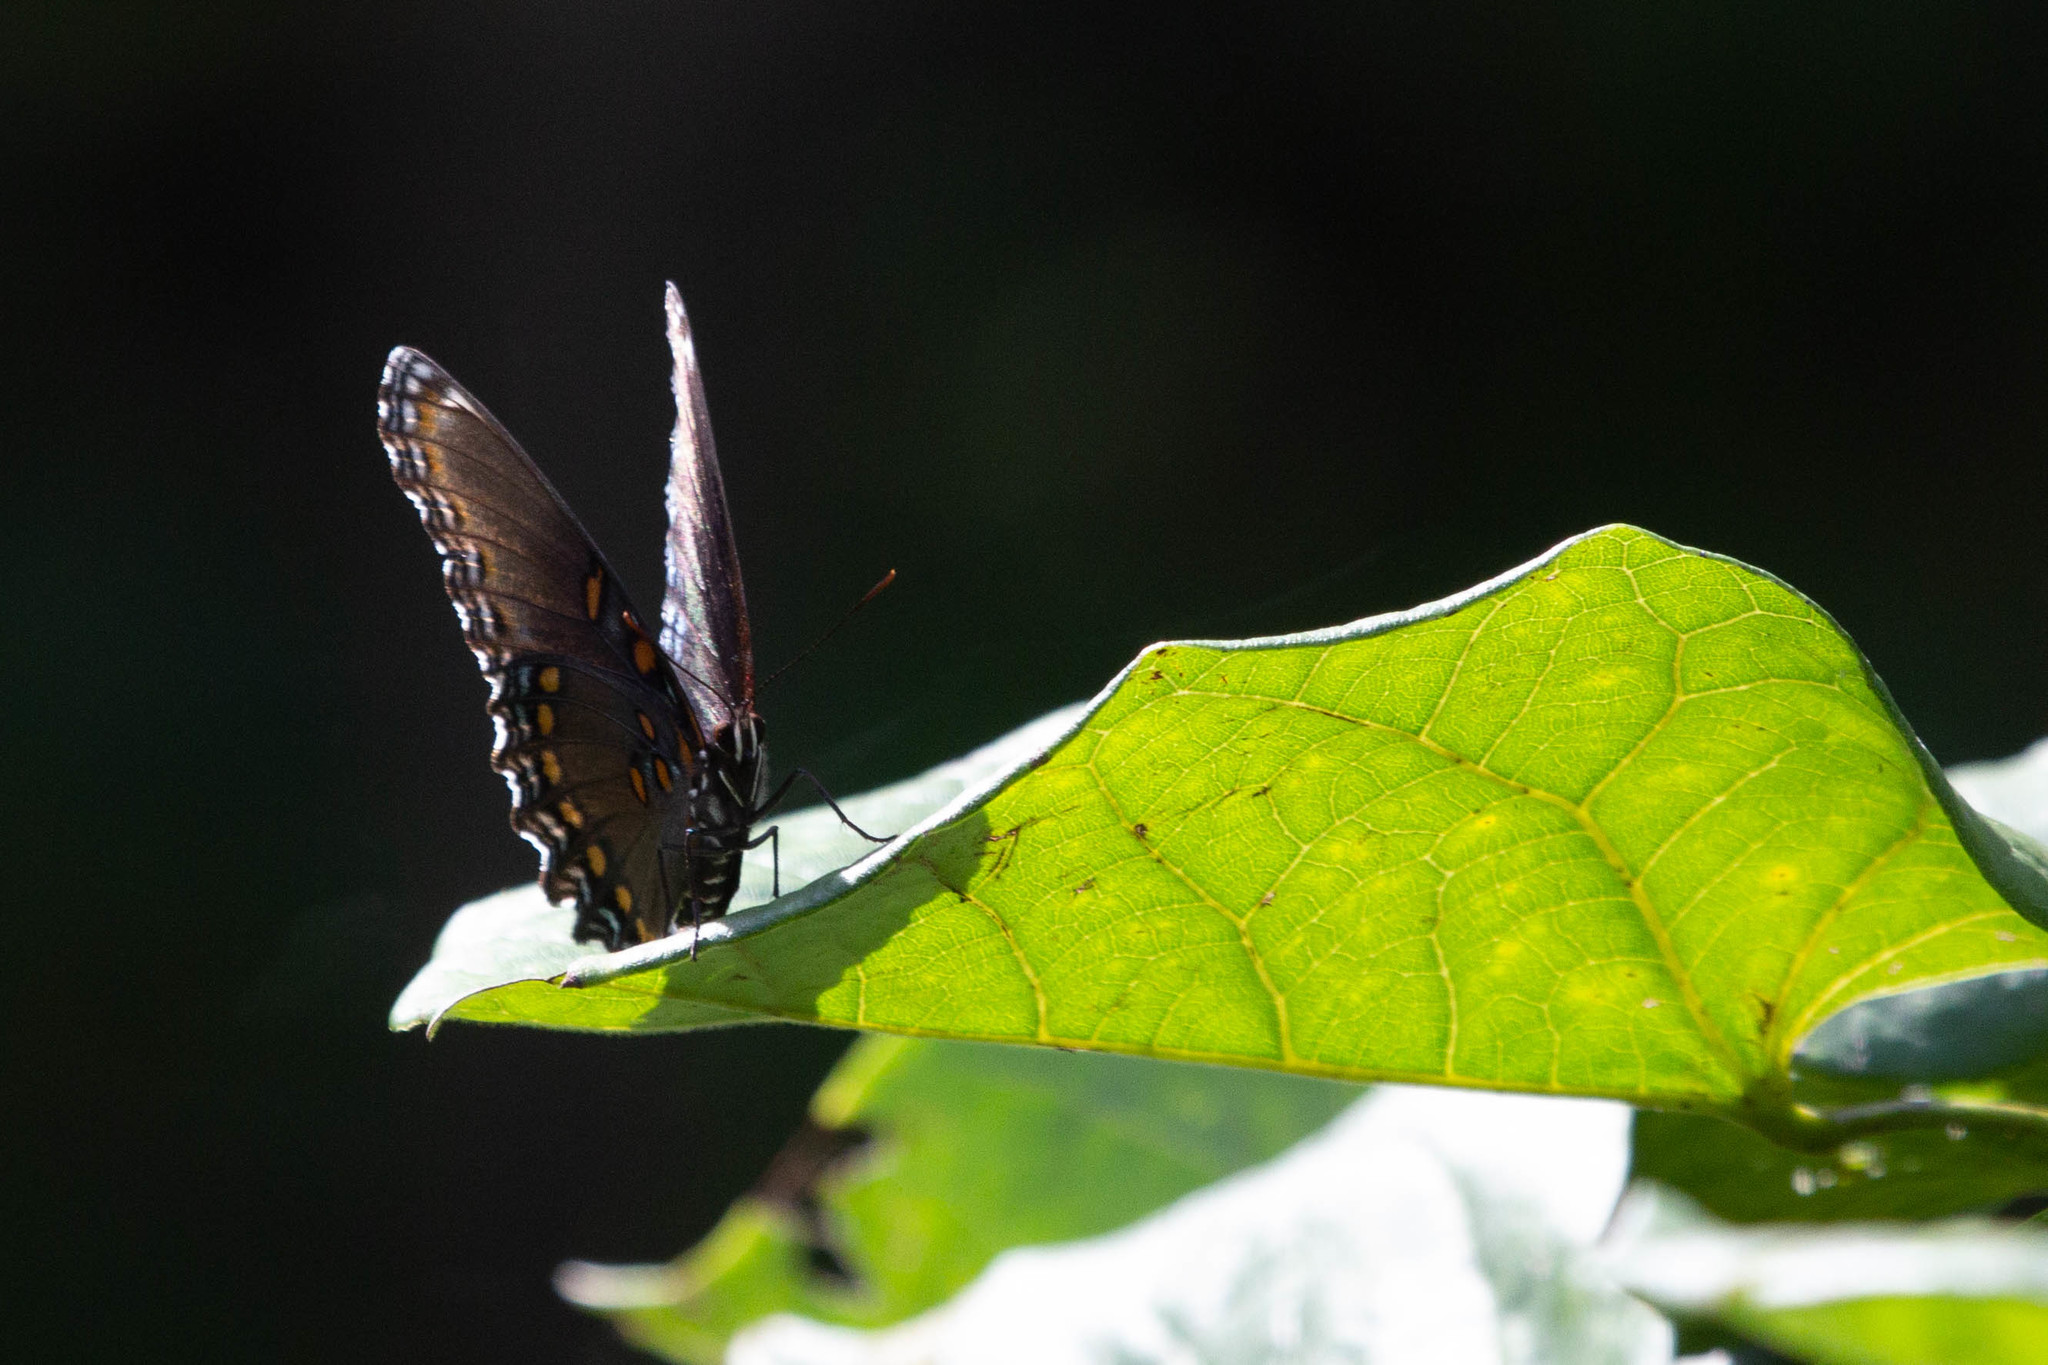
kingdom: Animalia
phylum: Arthropoda
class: Insecta
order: Lepidoptera
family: Nymphalidae
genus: Limenitis
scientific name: Limenitis astyanax
